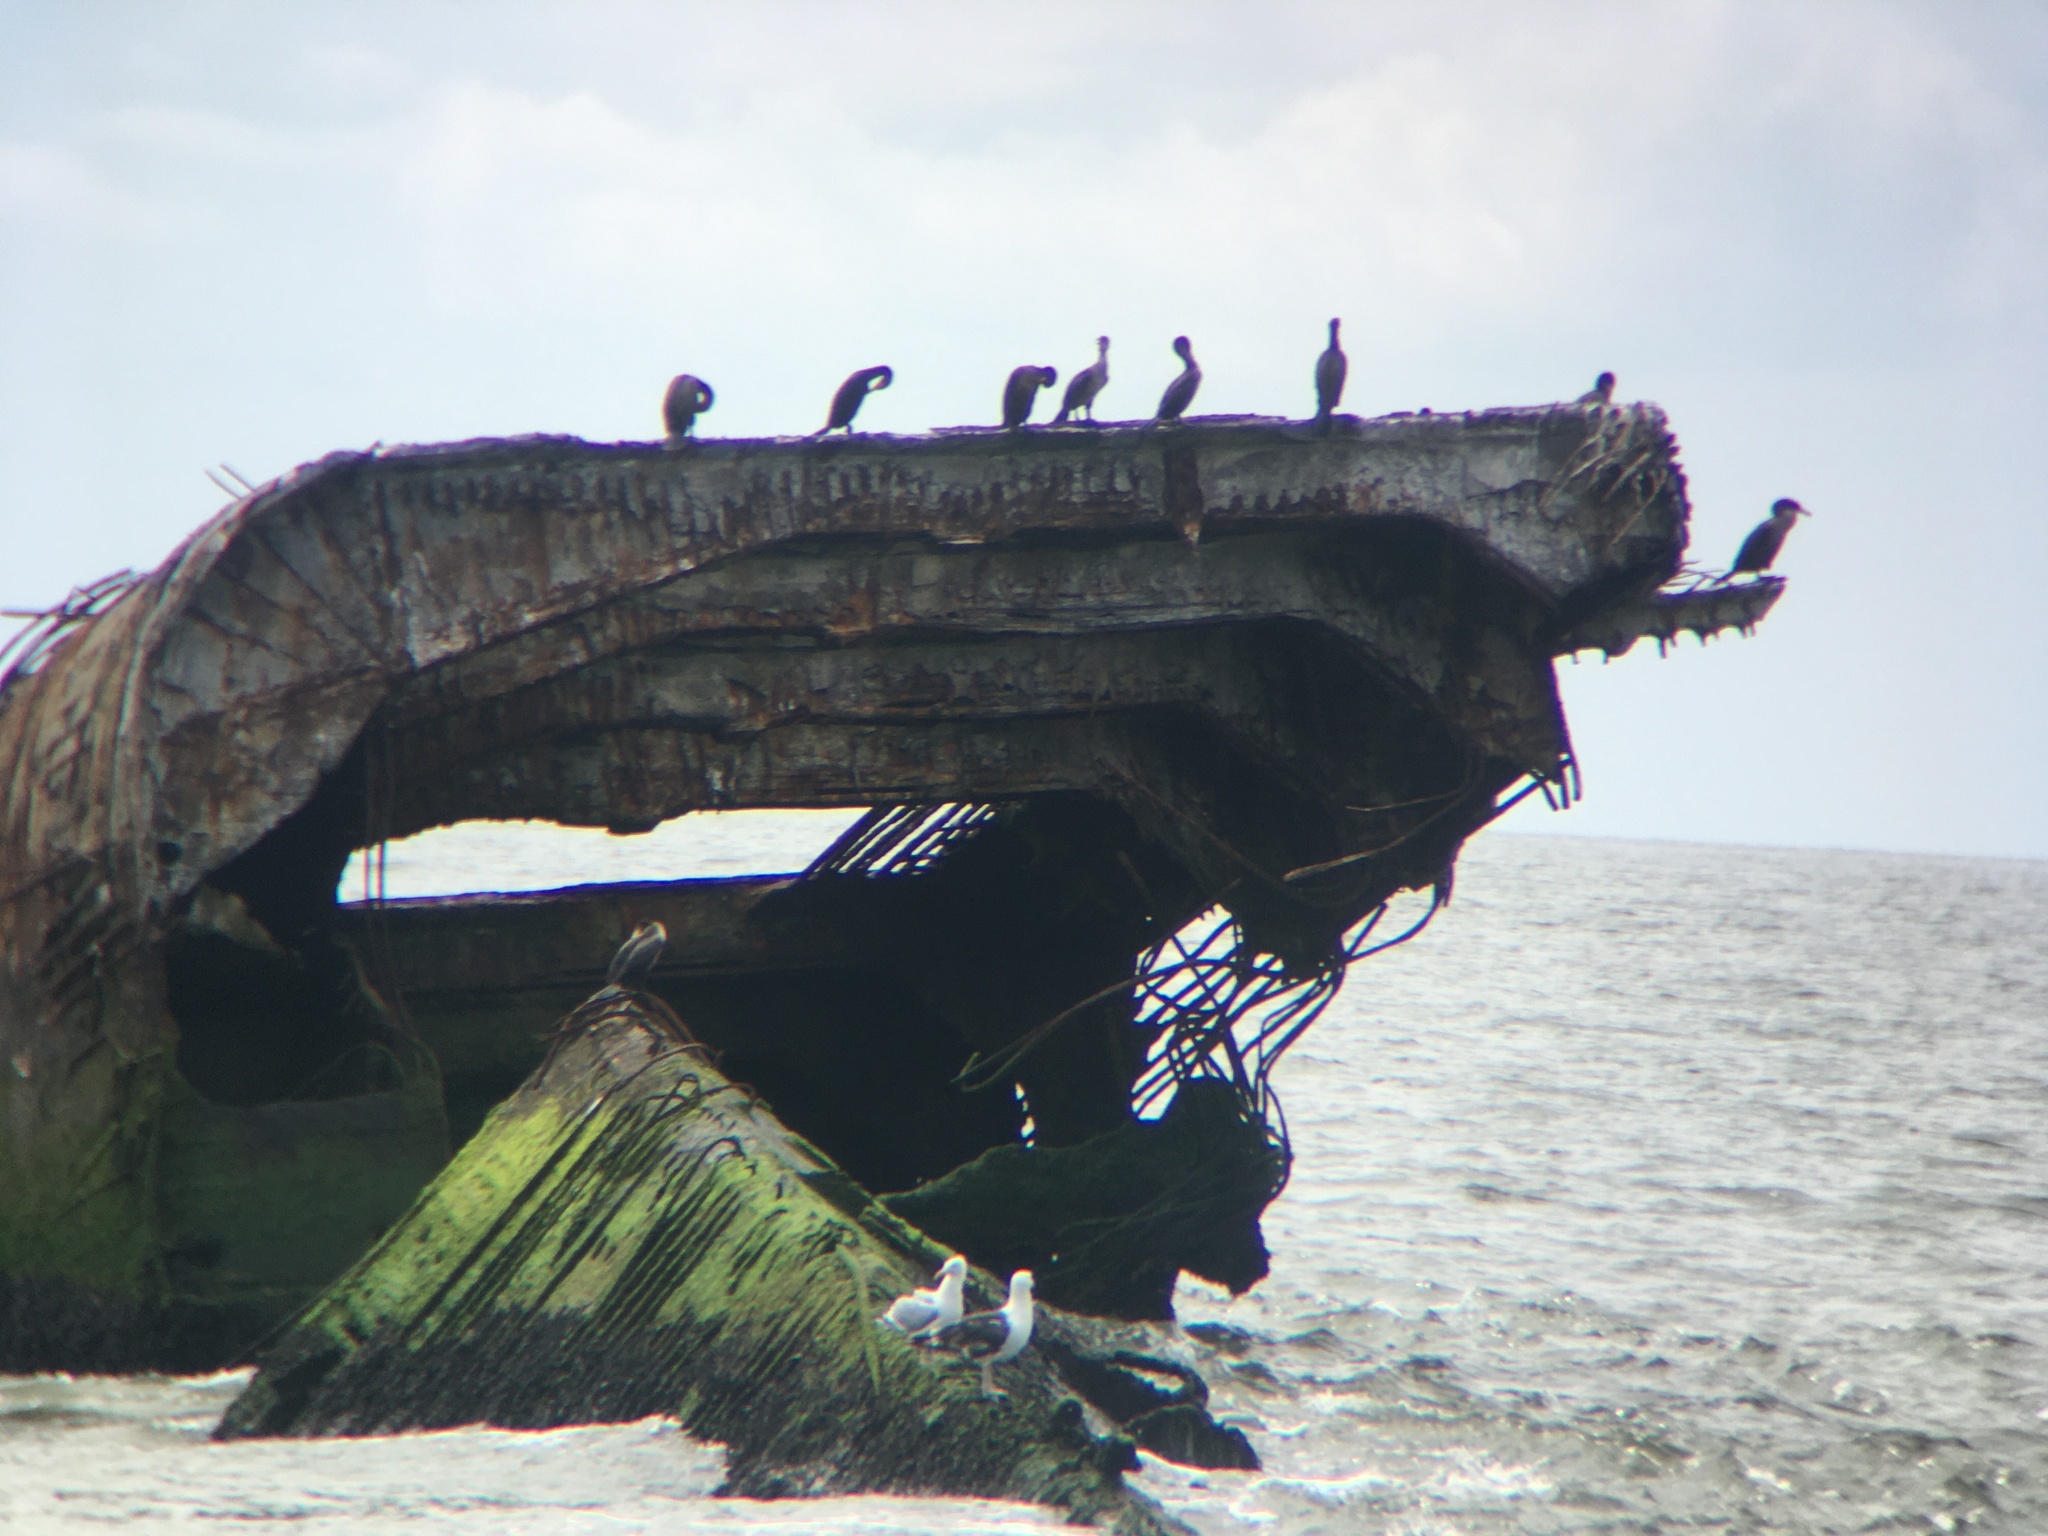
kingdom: Animalia
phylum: Chordata
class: Aves
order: Suliformes
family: Phalacrocoracidae
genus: Phalacrocorax
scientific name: Phalacrocorax auritus
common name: Double-crested cormorant
